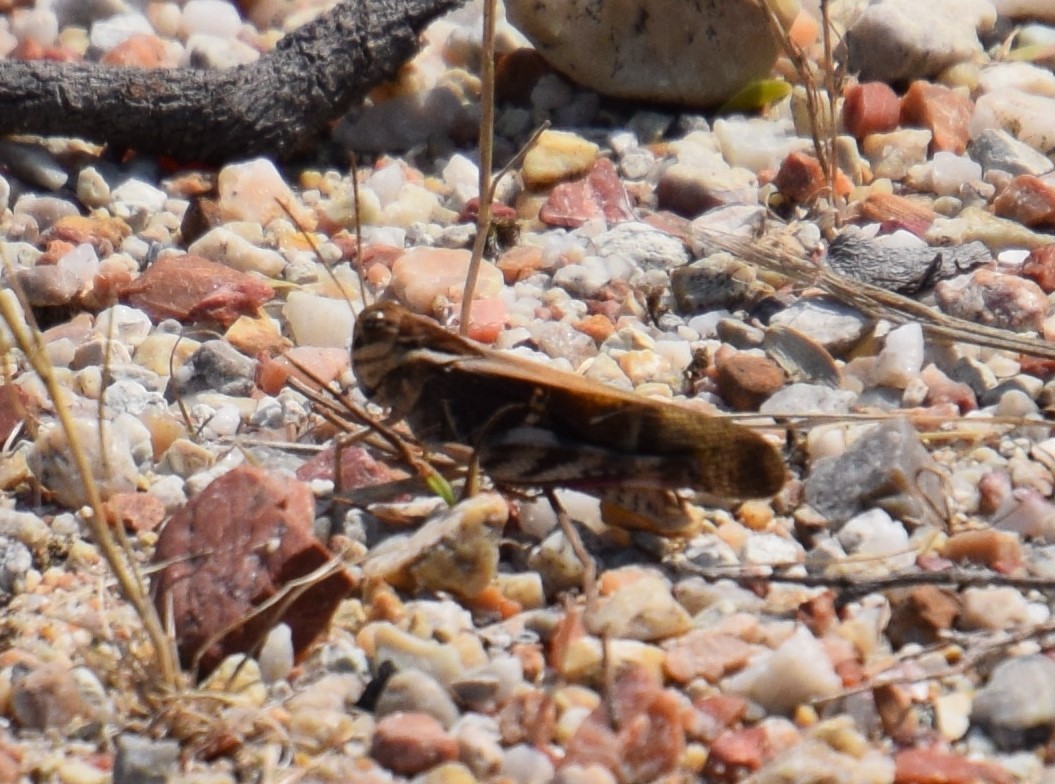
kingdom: Animalia
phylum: Arthropoda
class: Insecta
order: Orthoptera
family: Acrididae
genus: Gastrimargus
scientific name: Gastrimargus musicus
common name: Yellow-winged locust
